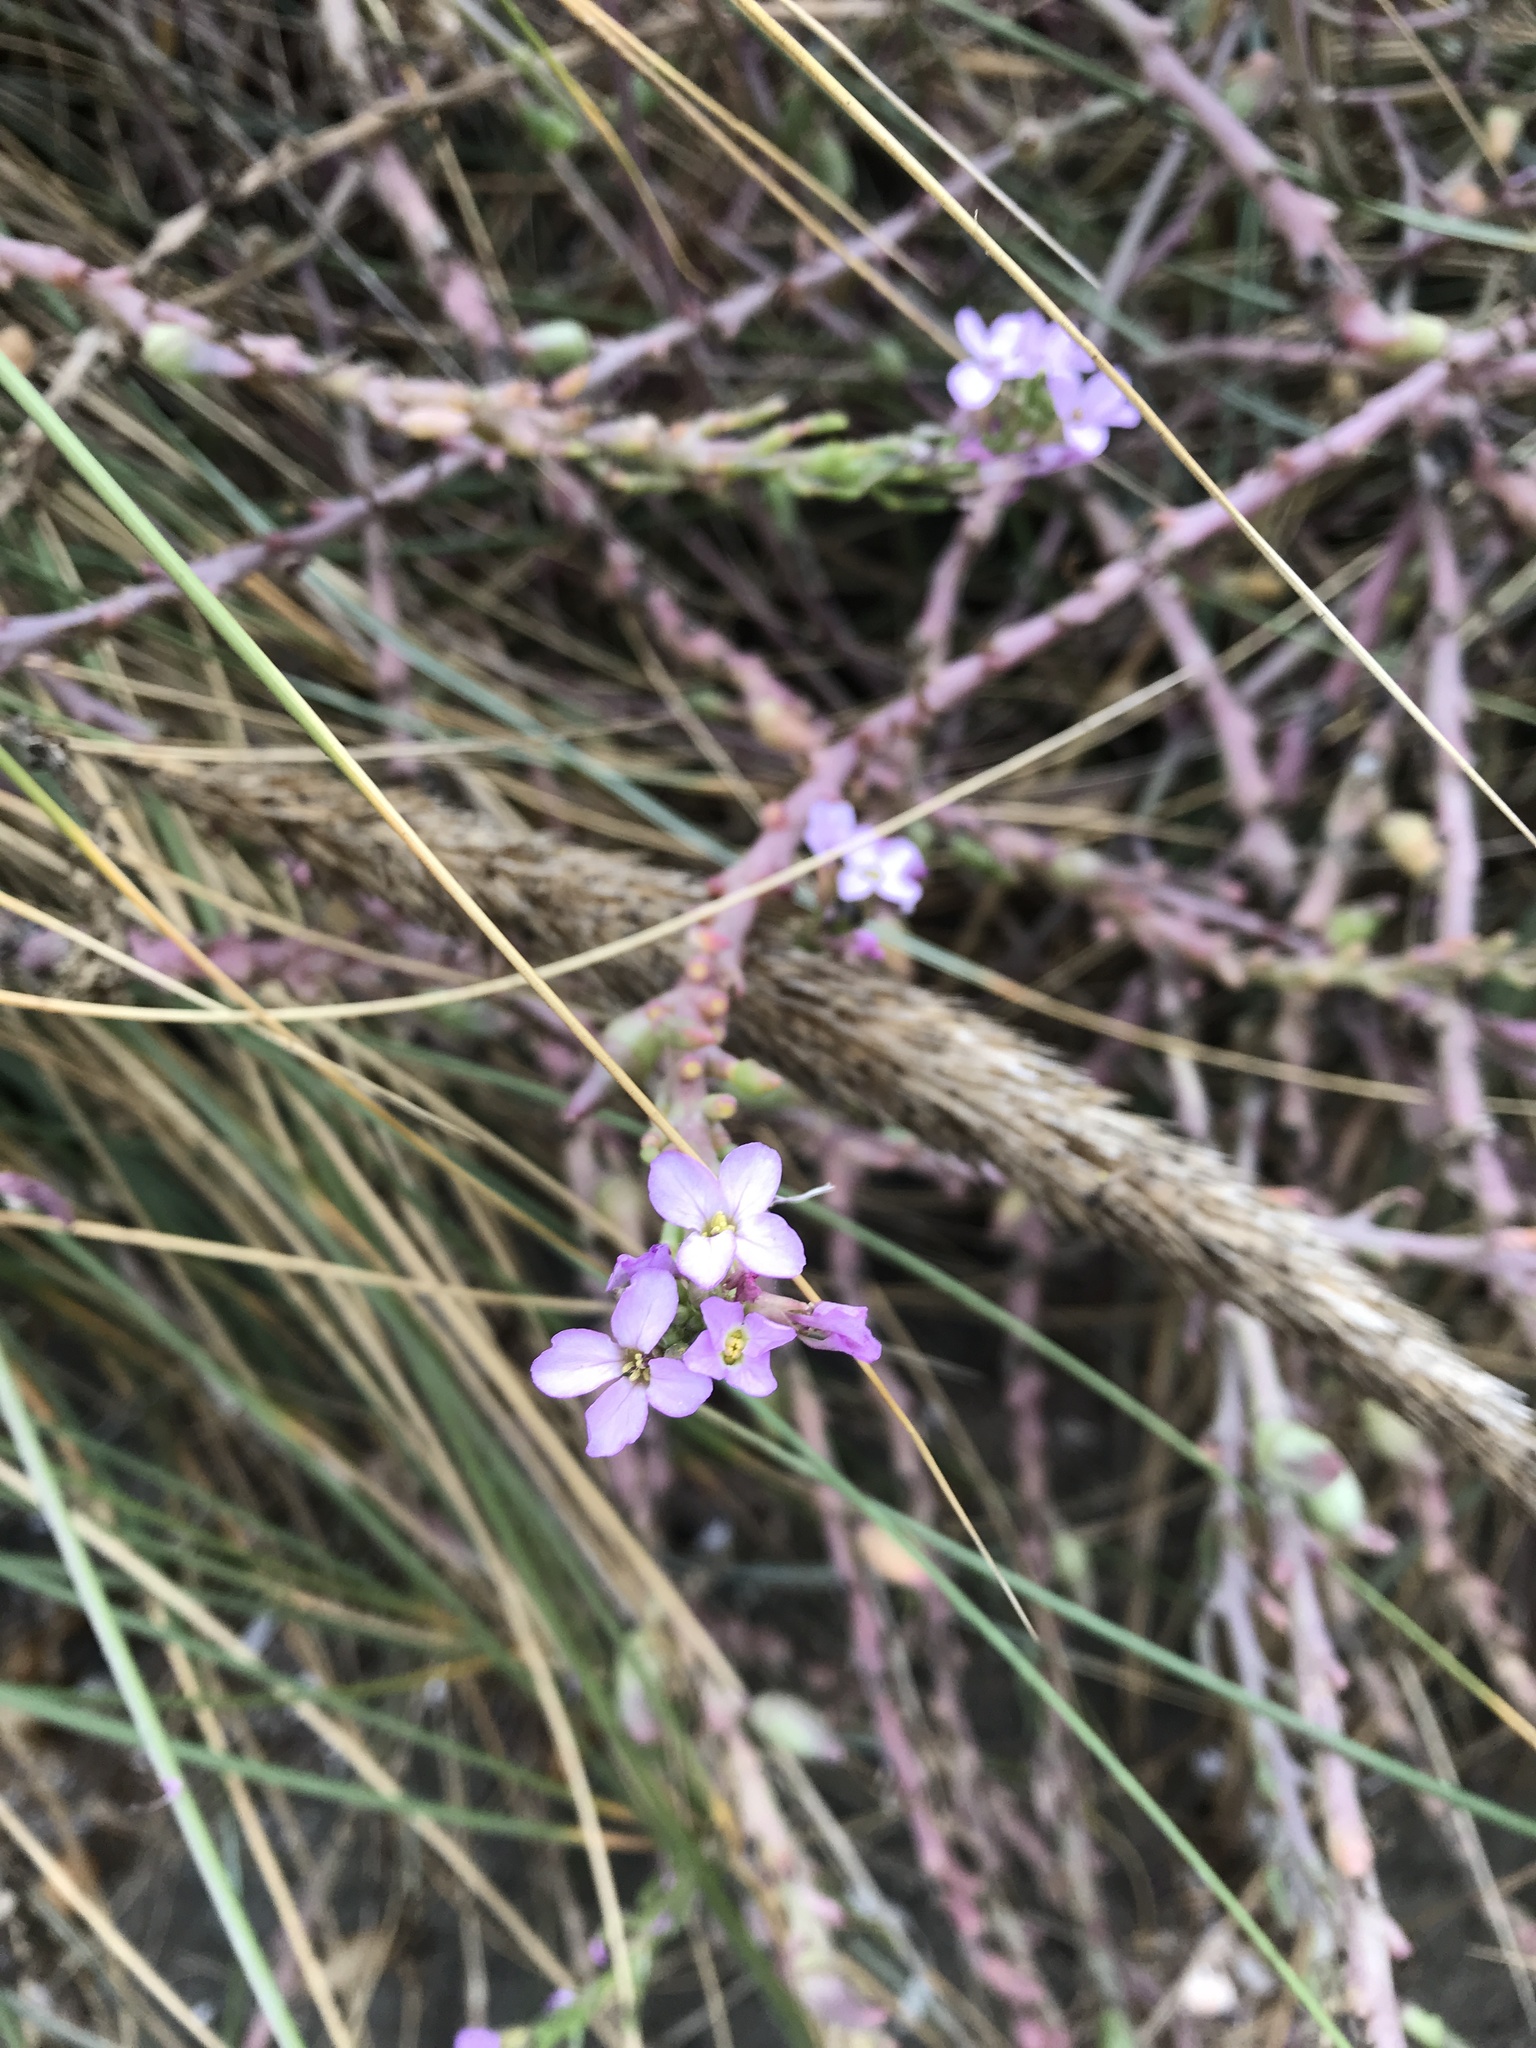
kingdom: Plantae
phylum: Tracheophyta
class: Magnoliopsida
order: Brassicales
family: Brassicaceae
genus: Cakile
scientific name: Cakile maritima
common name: Sea rocket
